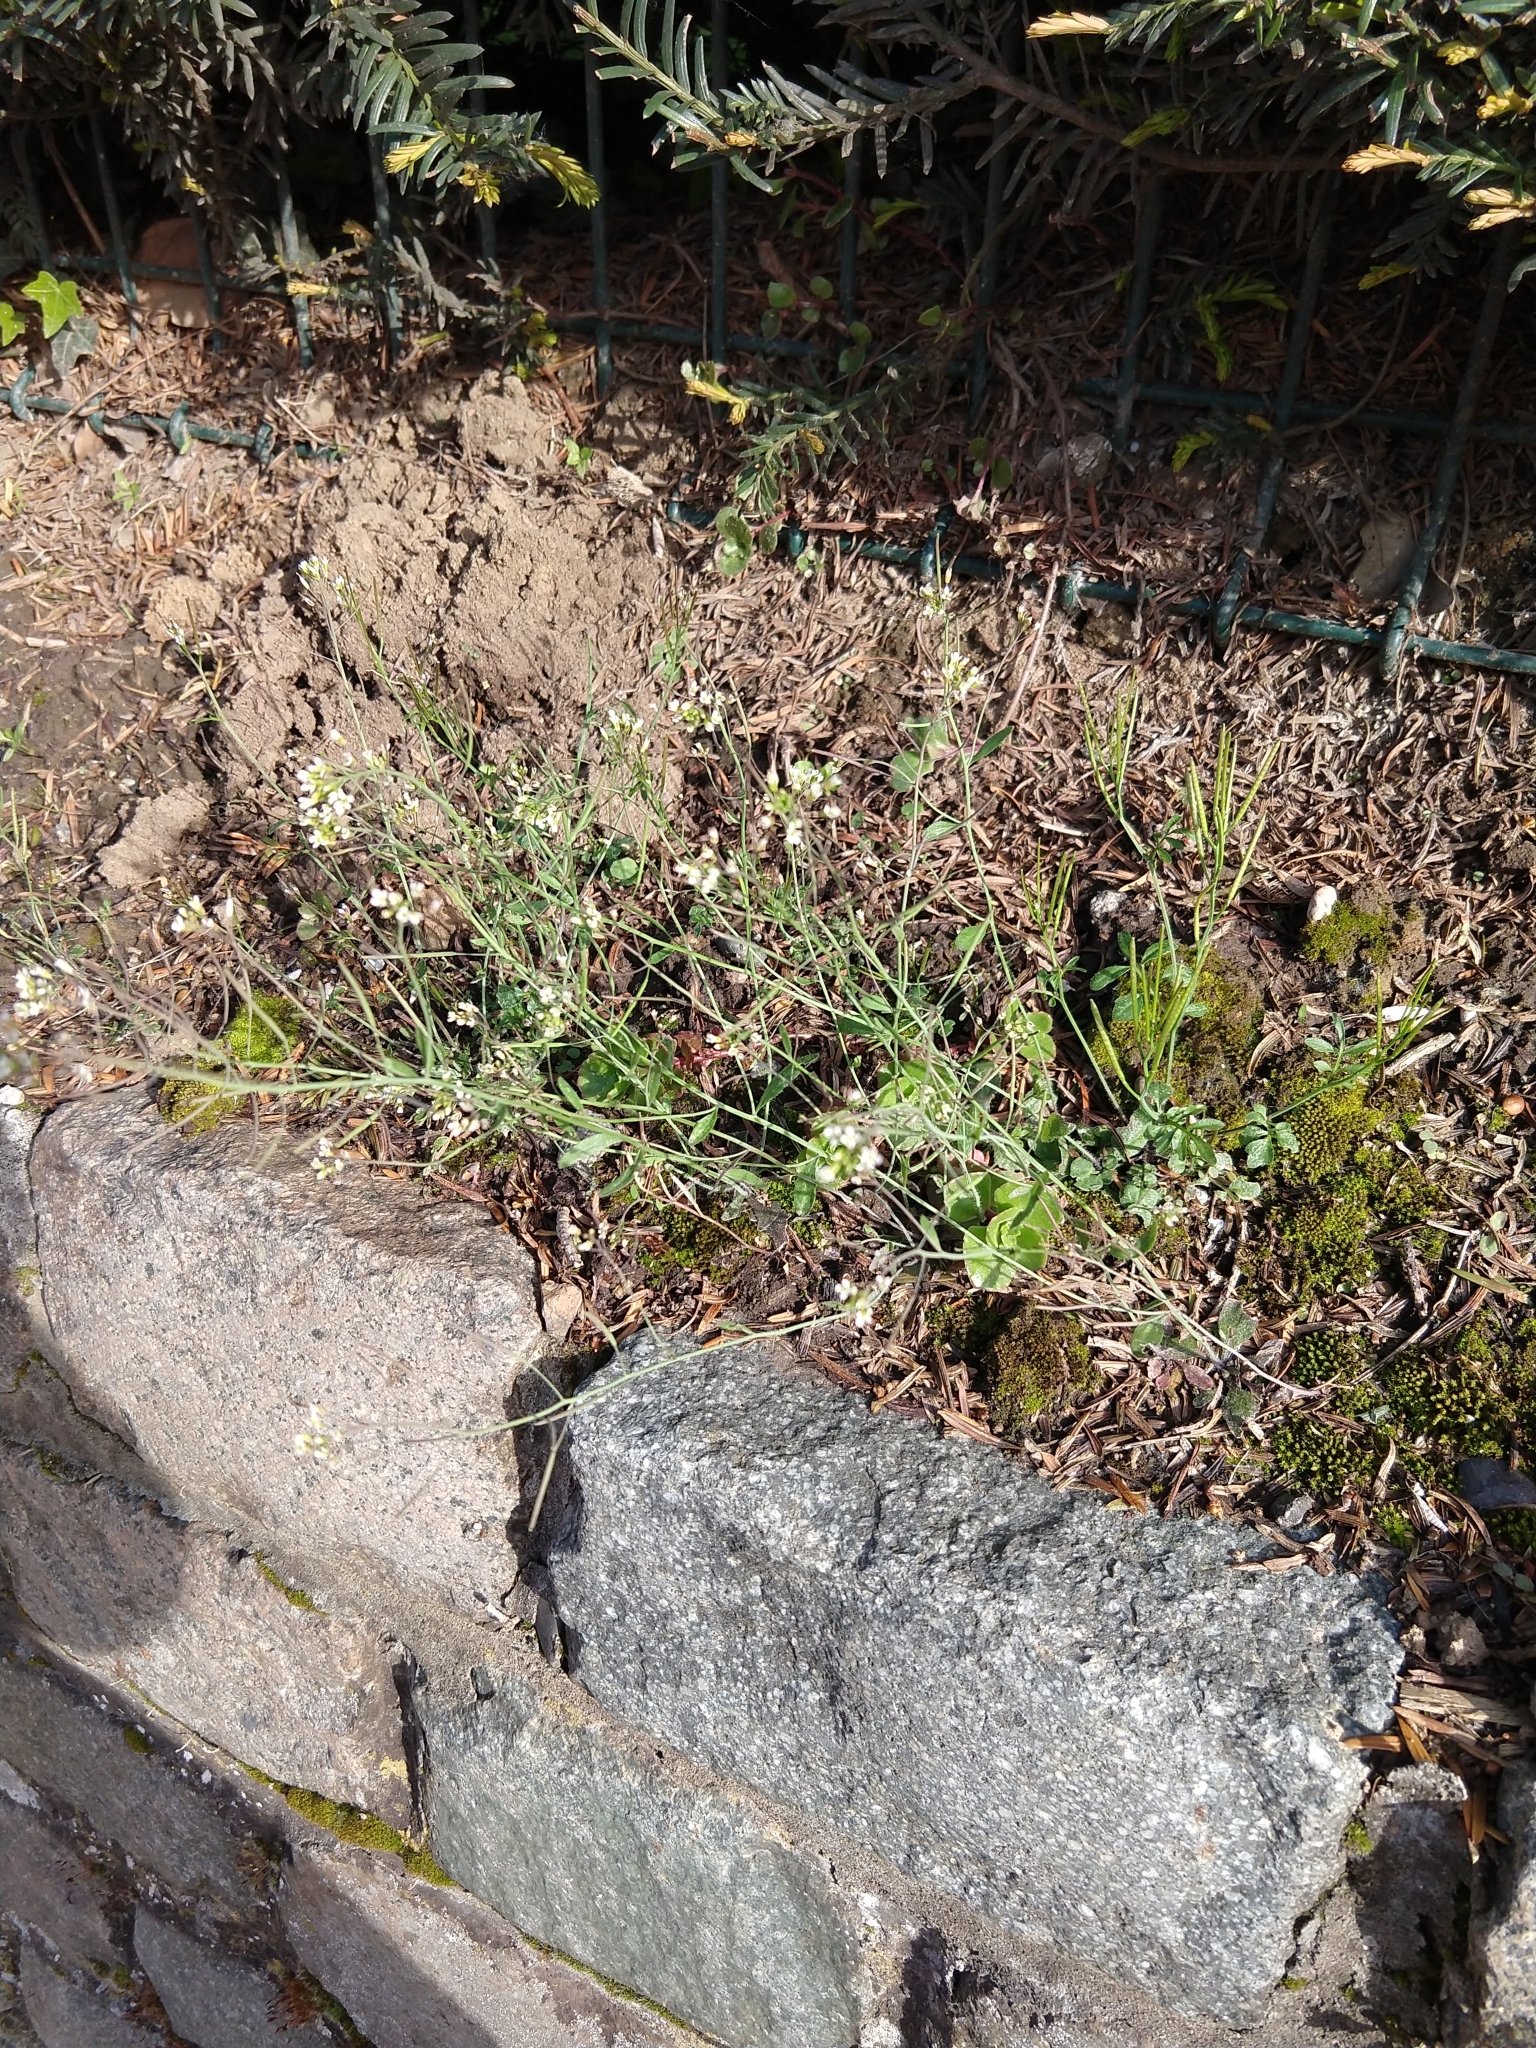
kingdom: Plantae
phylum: Tracheophyta
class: Magnoliopsida
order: Brassicales
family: Brassicaceae
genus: Arabidopsis
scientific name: Arabidopsis thaliana
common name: Thale cress
